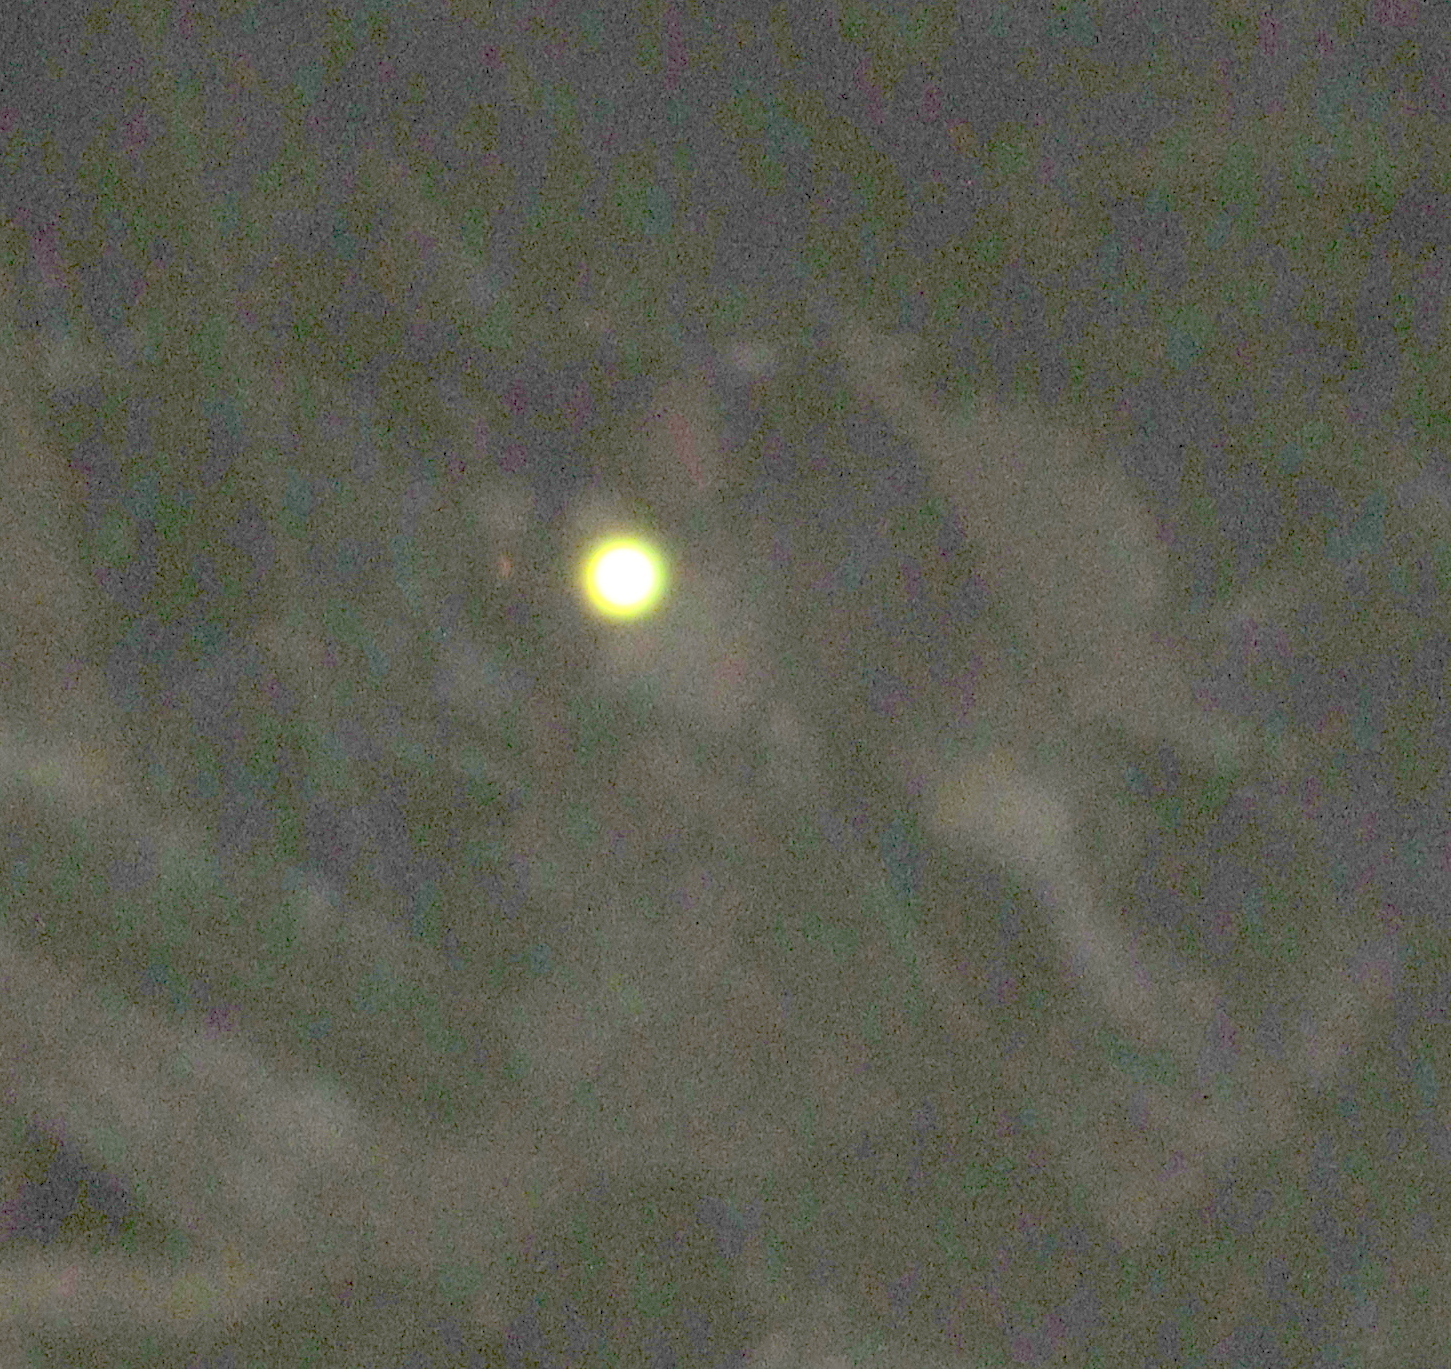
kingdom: Animalia
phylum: Chordata
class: Mammalia
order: Didelphimorphia
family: Didelphidae
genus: Philander
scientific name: Philander
